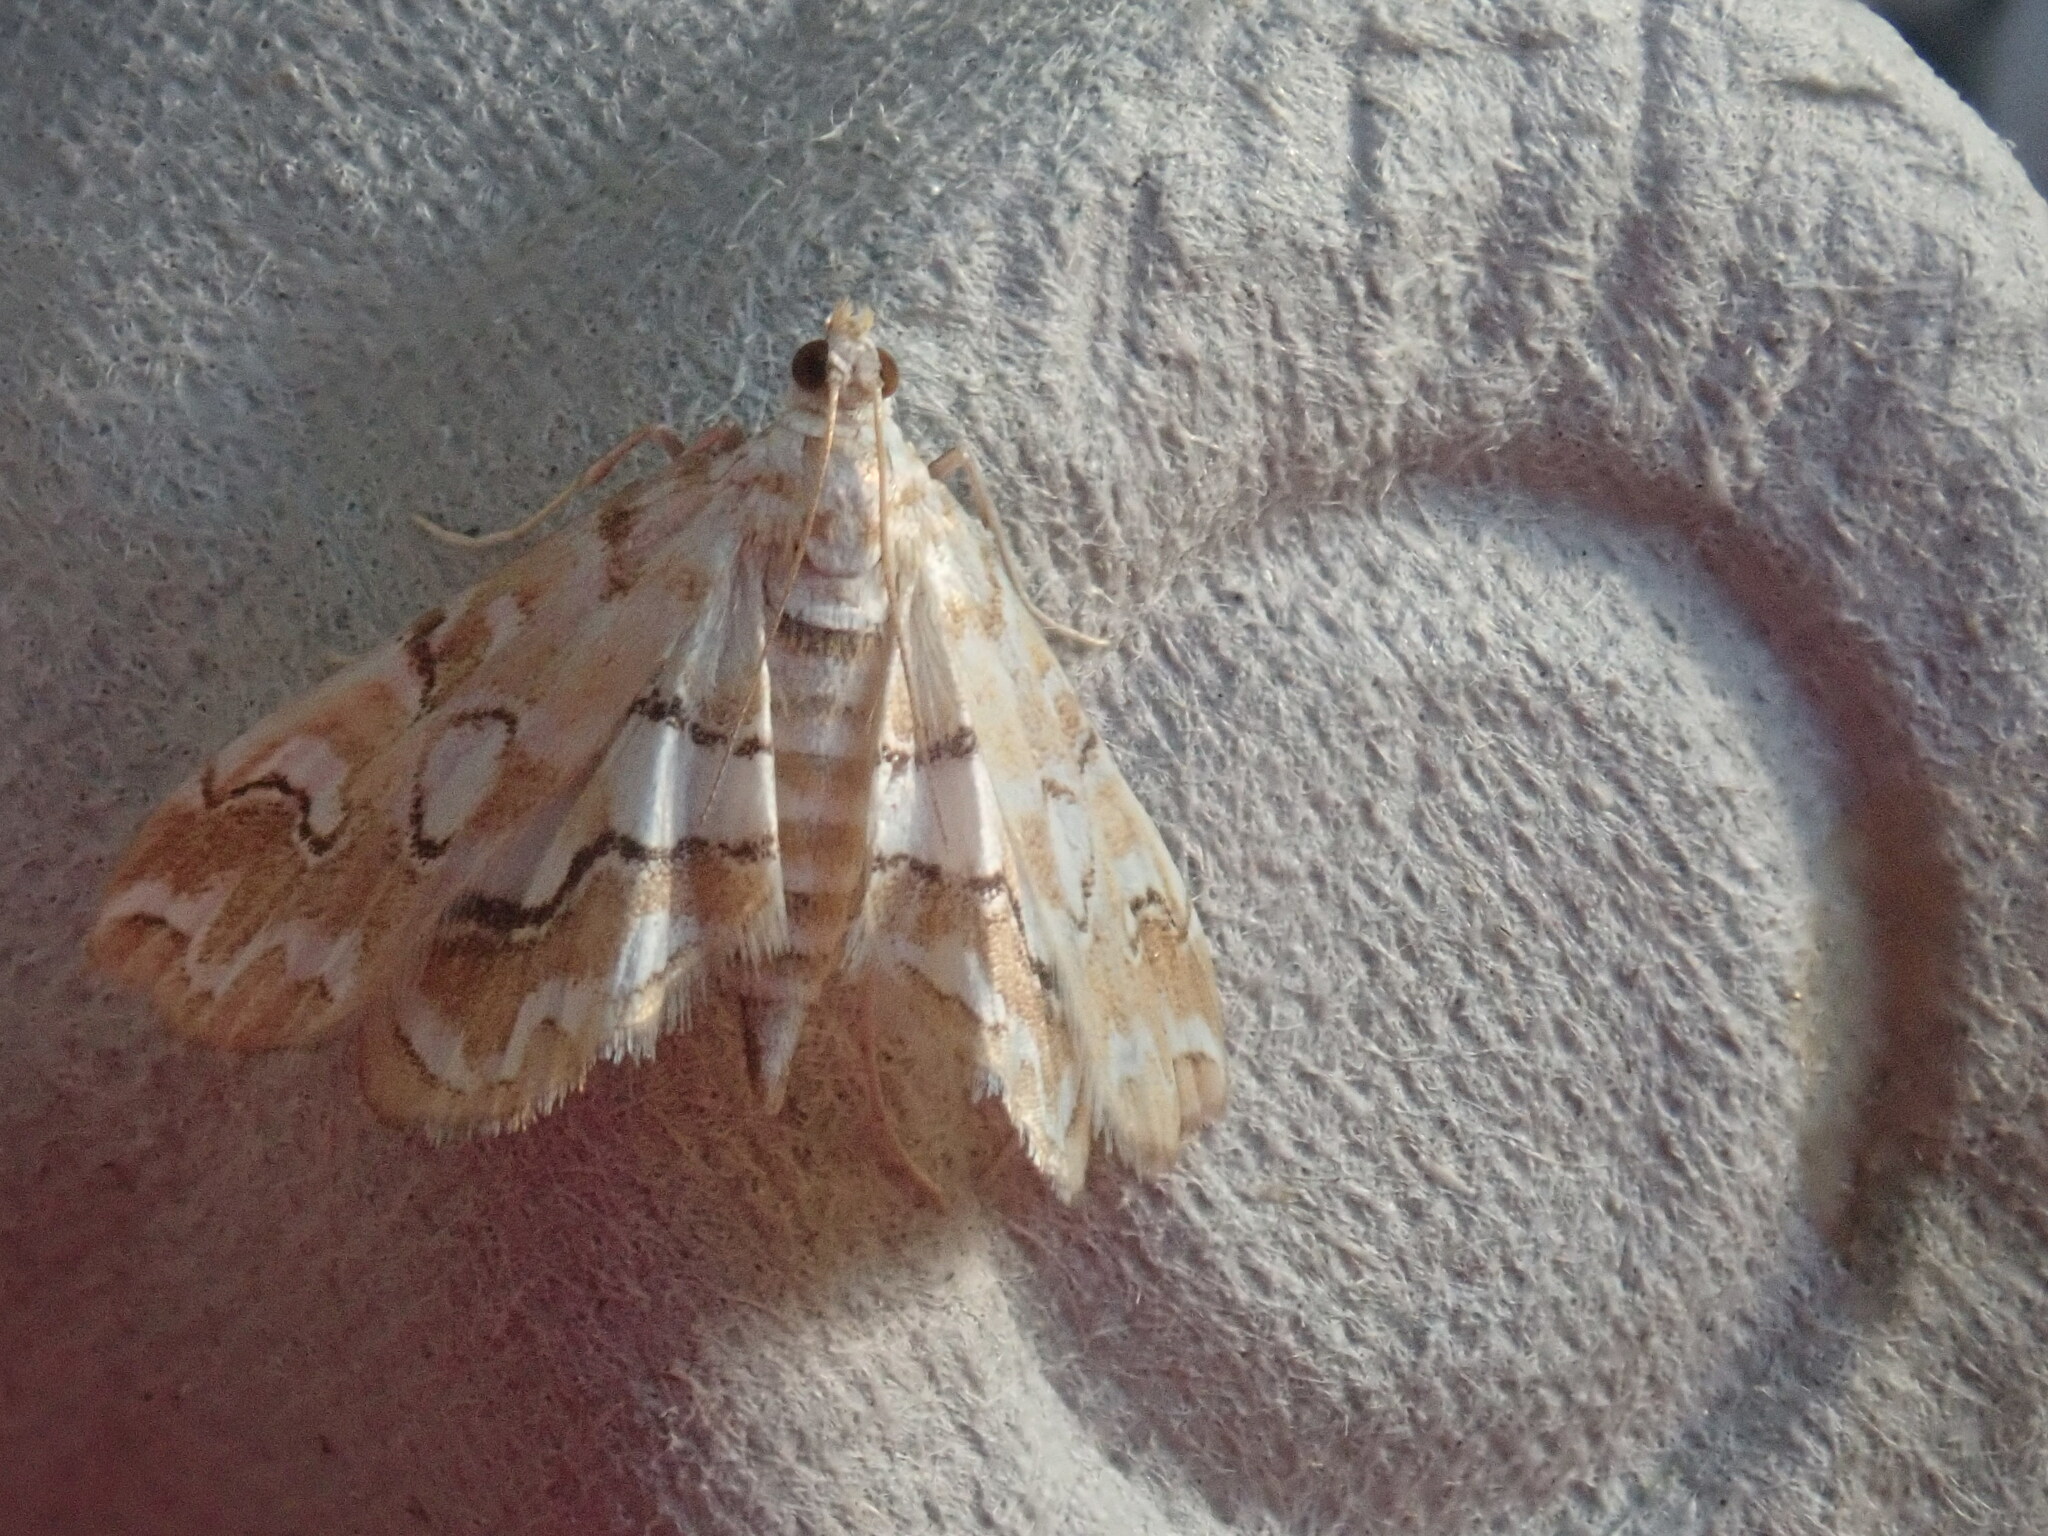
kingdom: Animalia
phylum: Arthropoda
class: Insecta
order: Lepidoptera
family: Crambidae
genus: Elophila
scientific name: Elophila icciusalis
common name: Pondside pyralid moth
